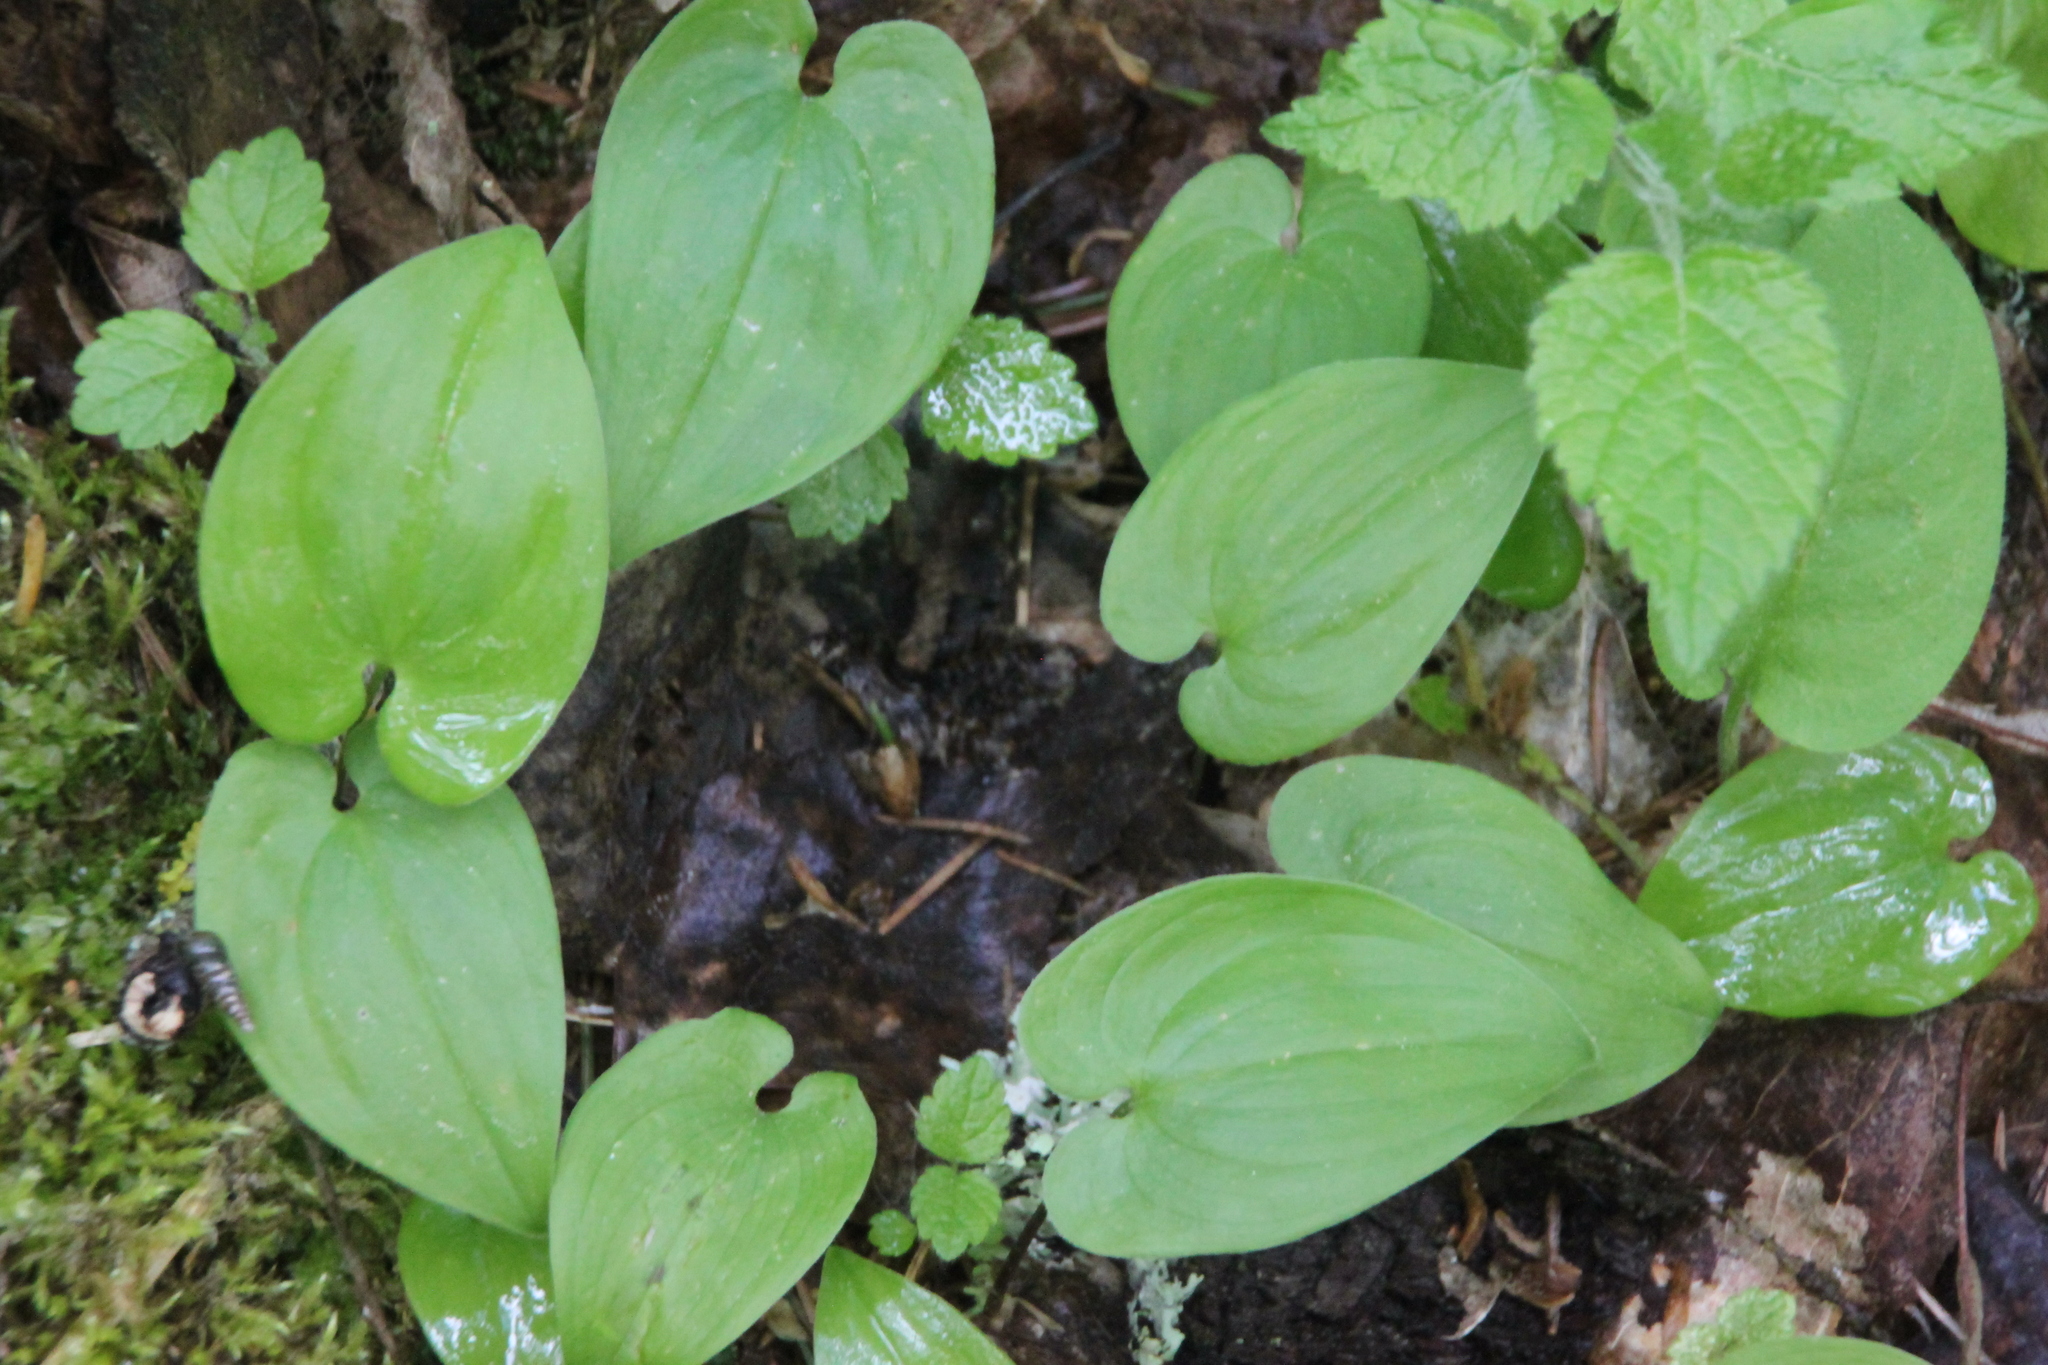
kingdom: Plantae
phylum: Tracheophyta
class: Liliopsida
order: Asparagales
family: Asparagaceae
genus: Maianthemum
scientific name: Maianthemum bifolium
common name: May lily
